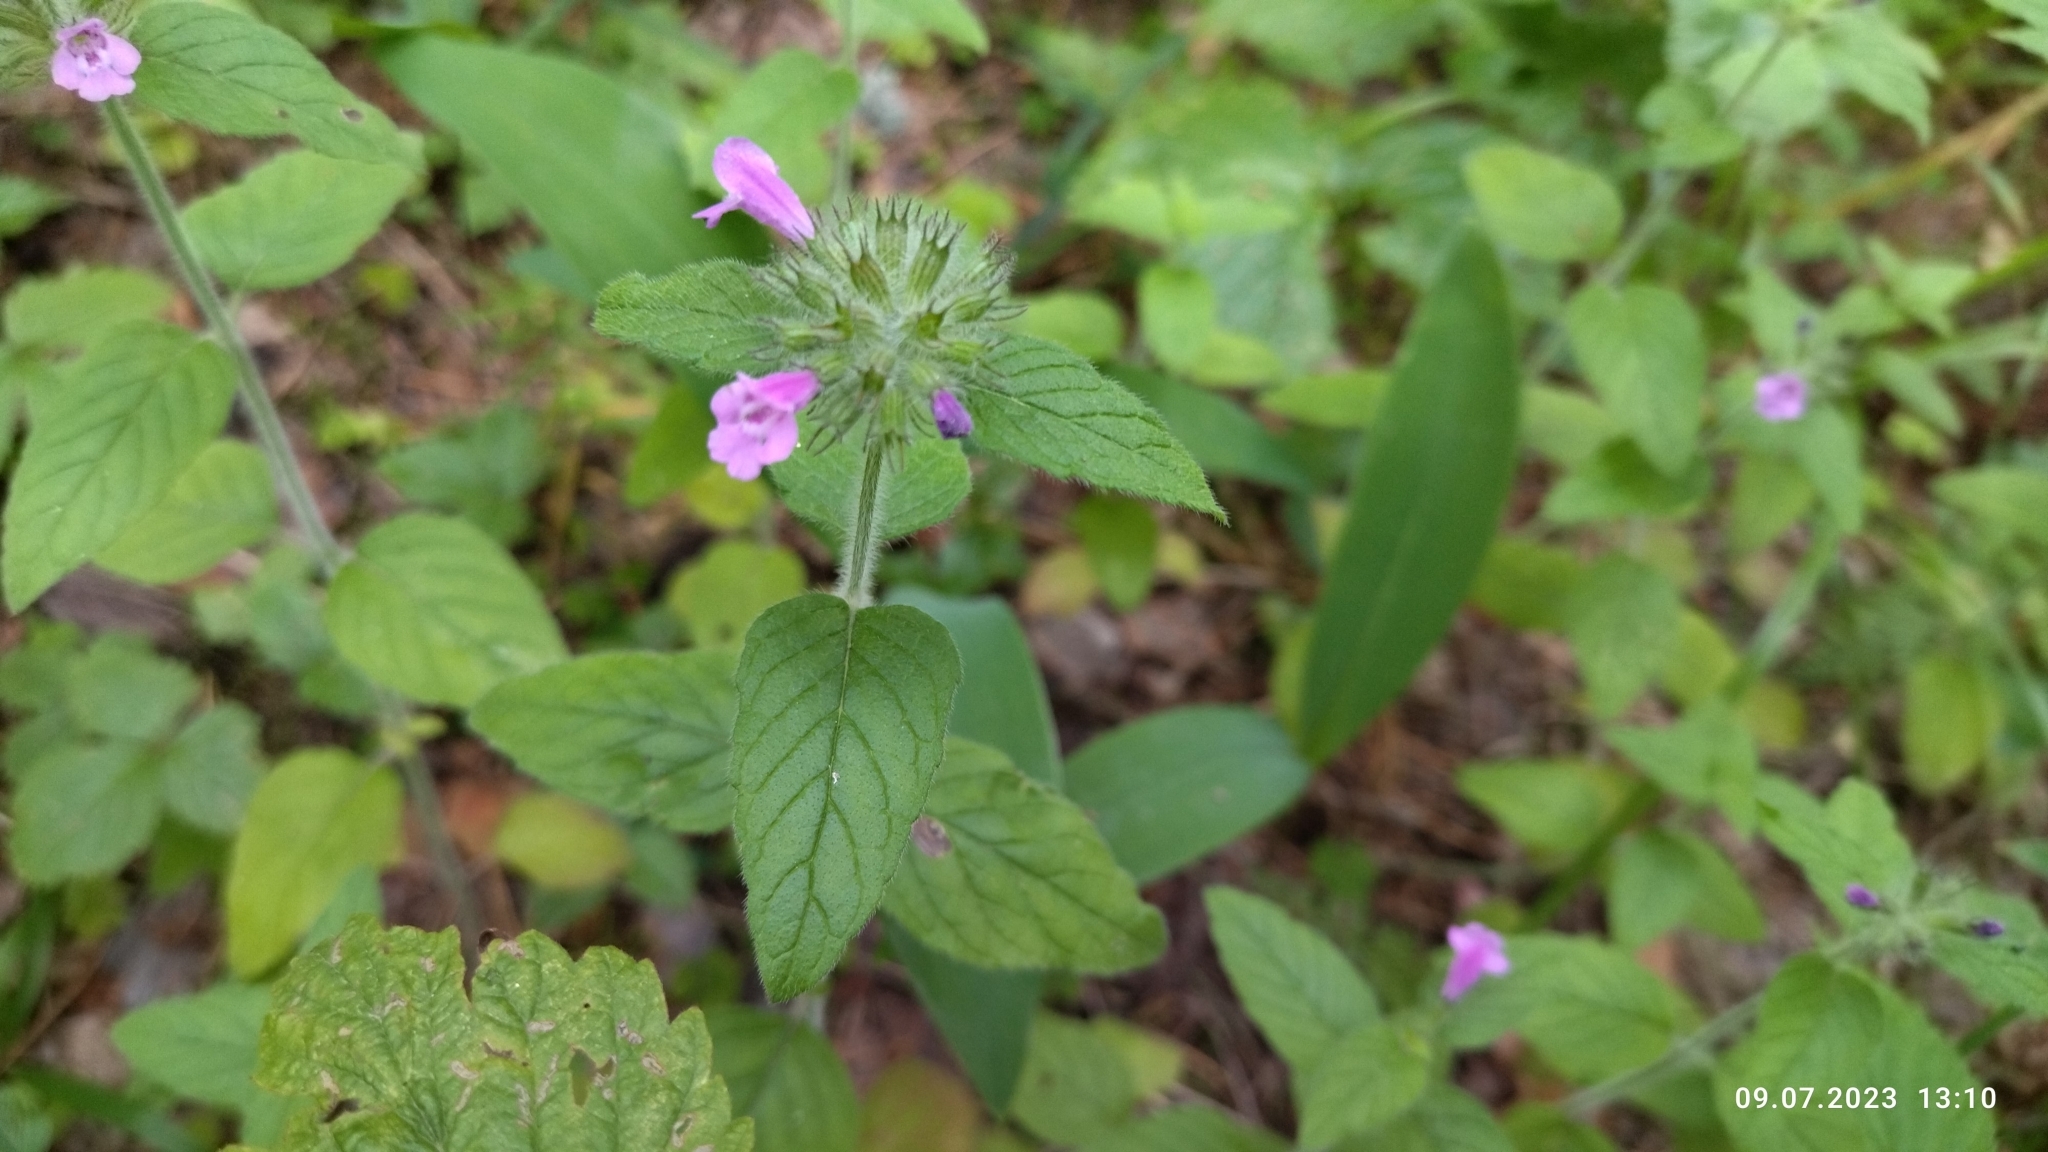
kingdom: Plantae
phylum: Tracheophyta
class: Magnoliopsida
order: Lamiales
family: Lamiaceae
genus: Clinopodium
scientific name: Clinopodium vulgare
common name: Wild basil
